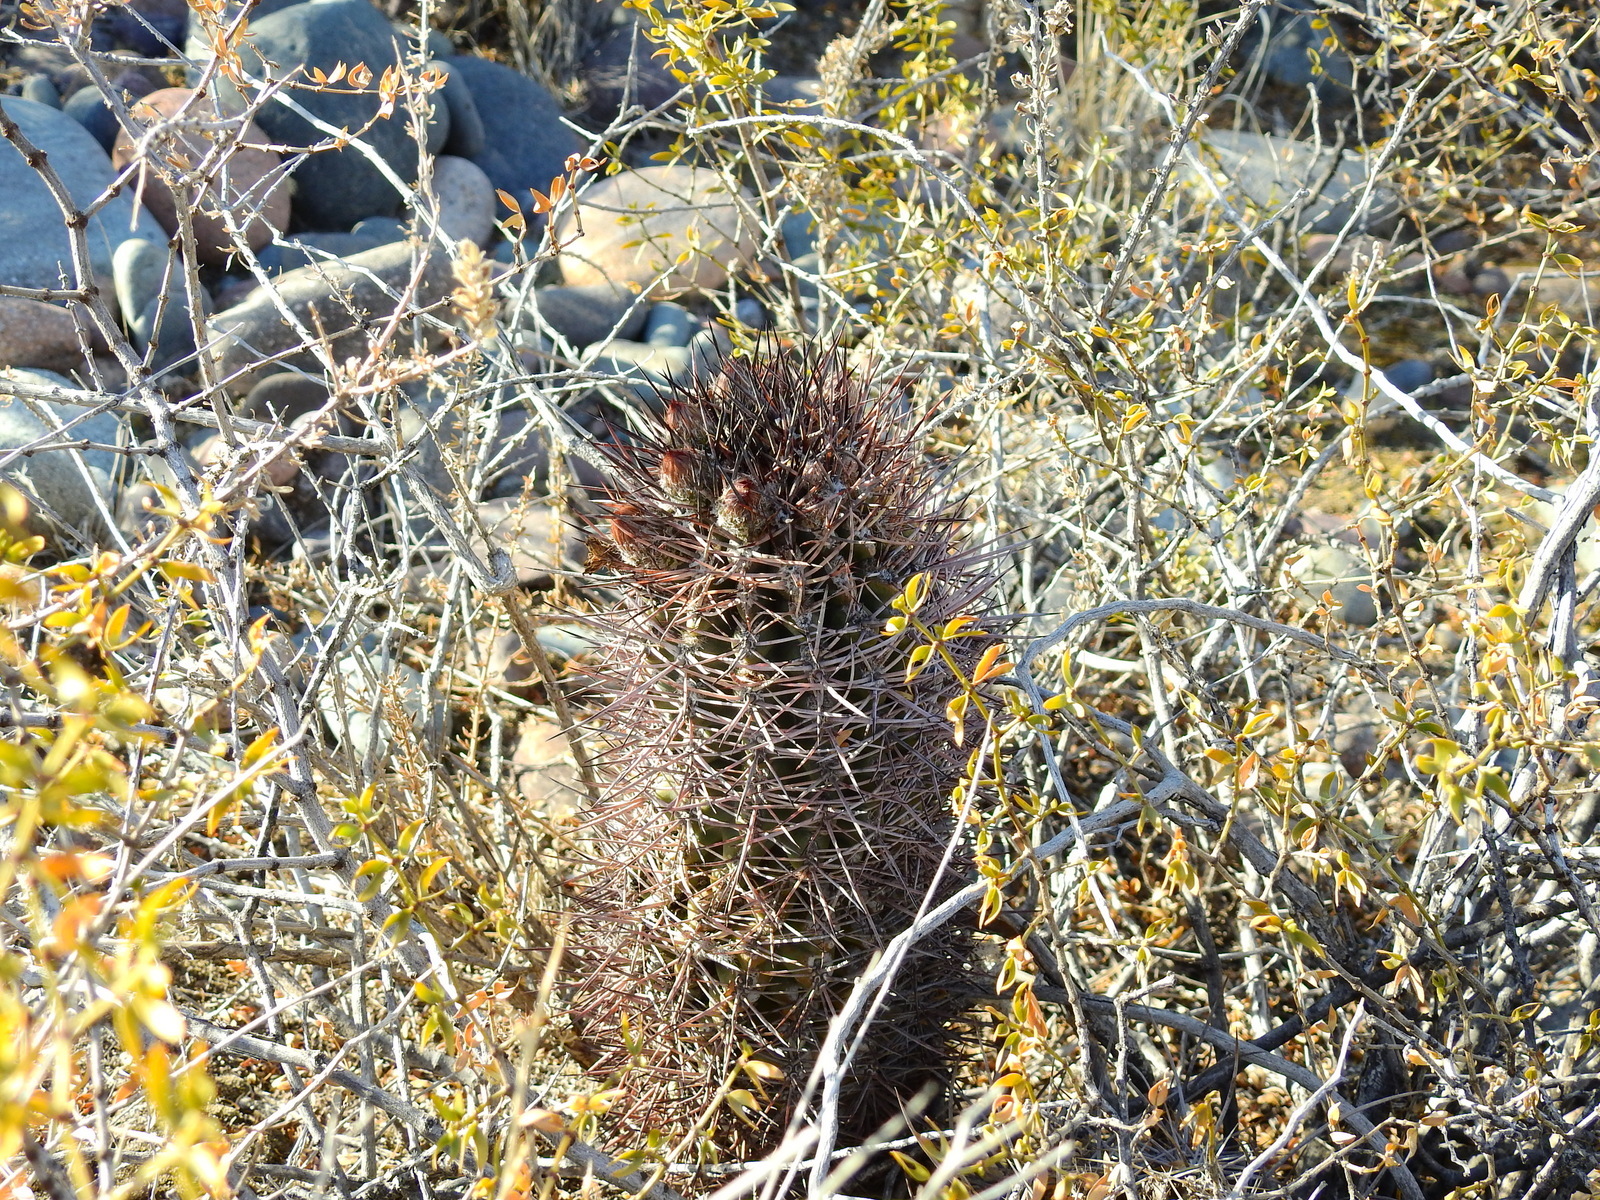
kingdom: Plantae
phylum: Tracheophyta
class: Magnoliopsida
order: Caryophyllales
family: Cactaceae
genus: Eriosyce
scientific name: Eriosyce strausiana
